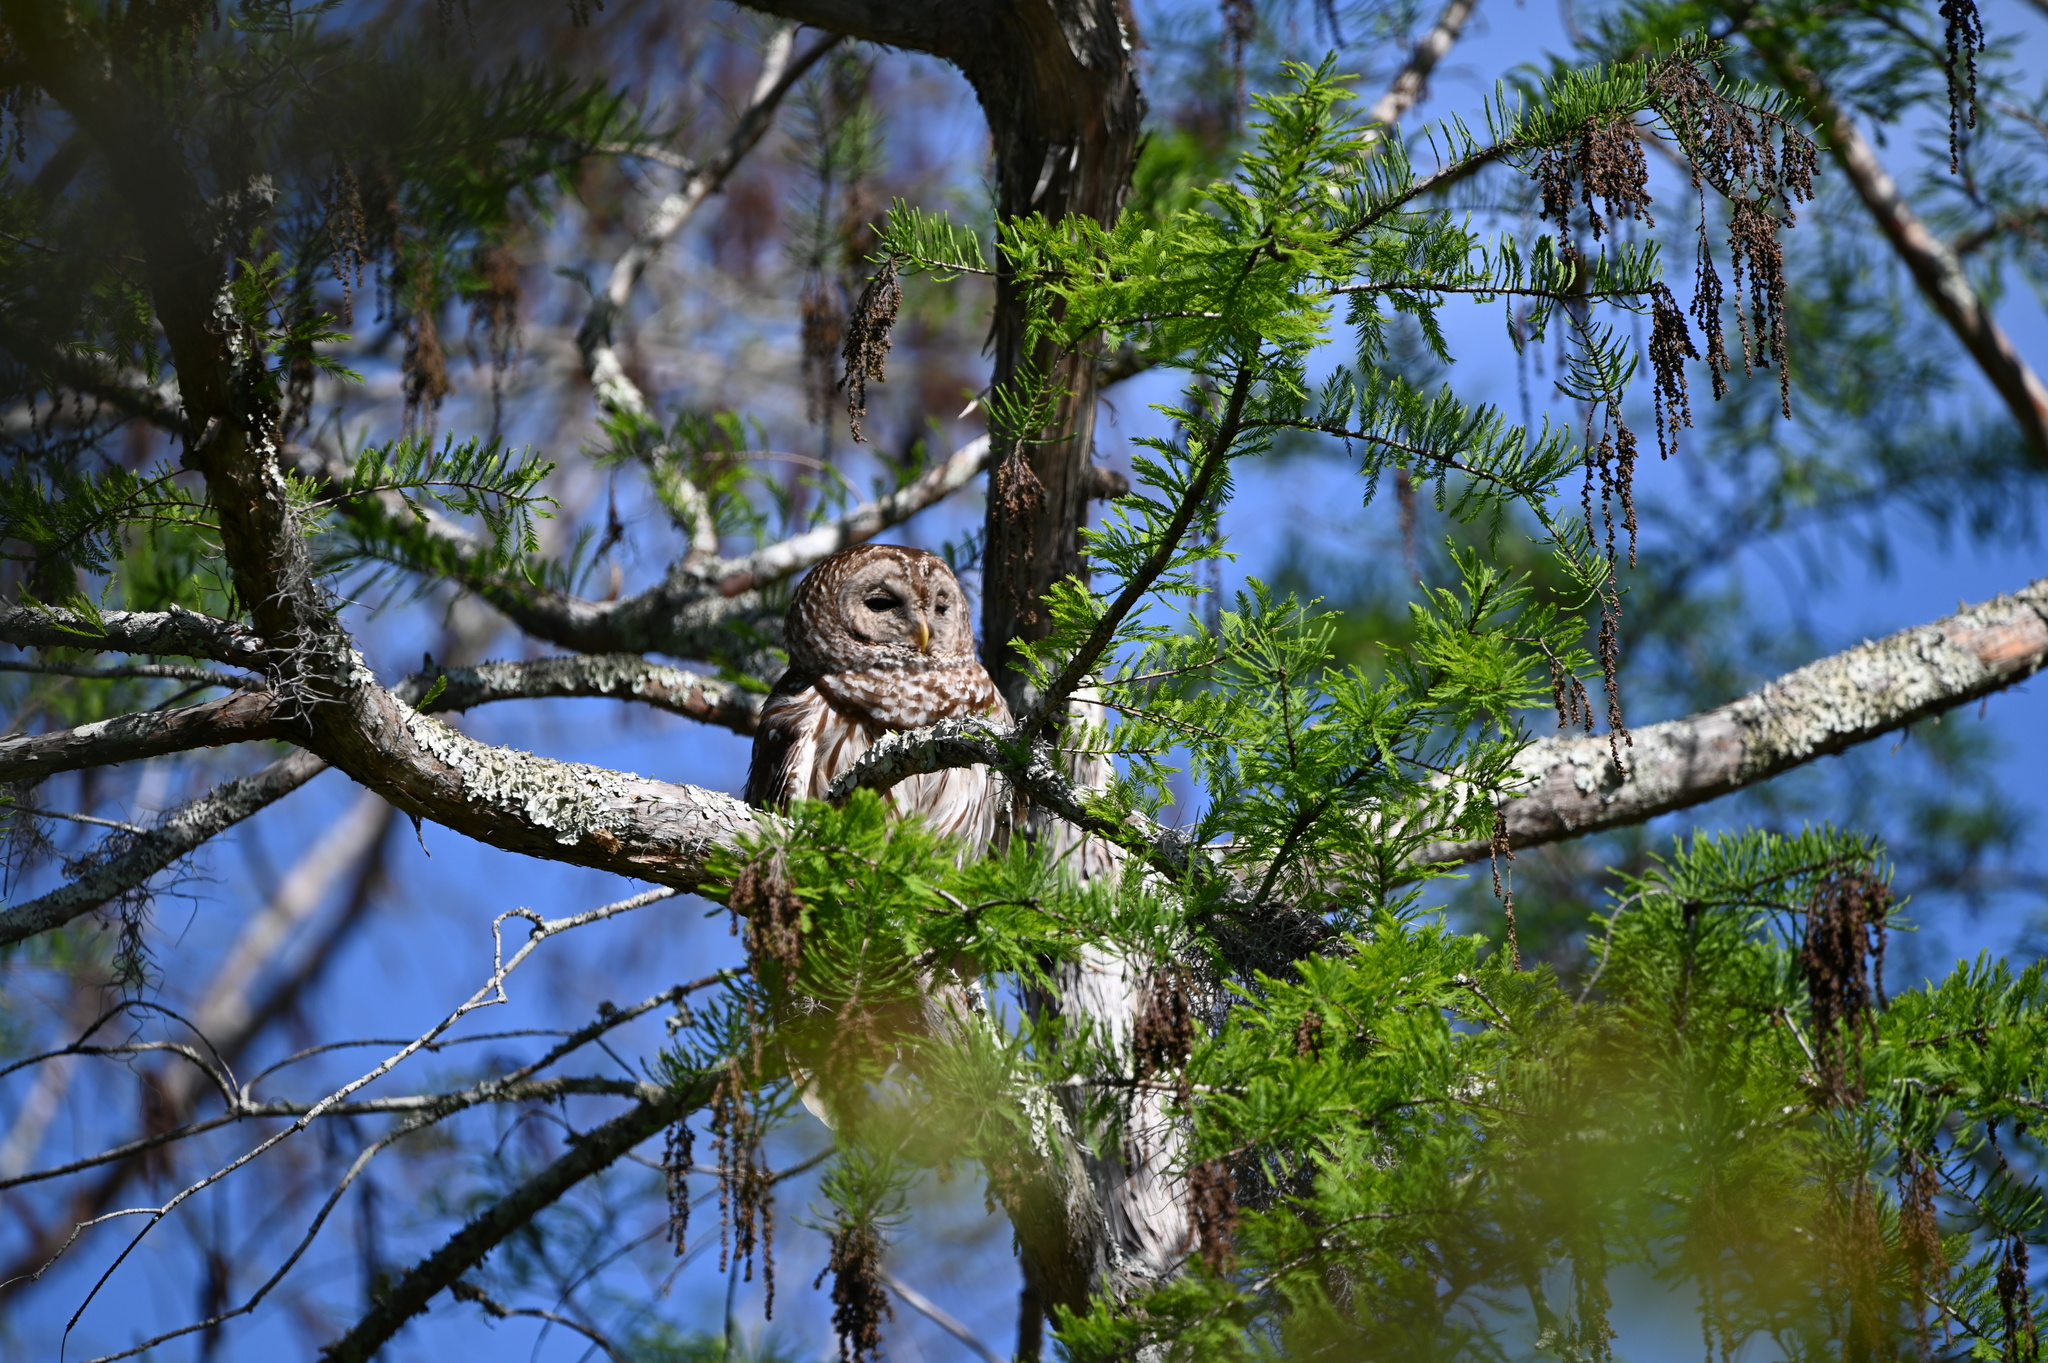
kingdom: Animalia
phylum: Chordata
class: Aves
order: Strigiformes
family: Strigidae
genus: Strix
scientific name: Strix varia
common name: Barred owl
